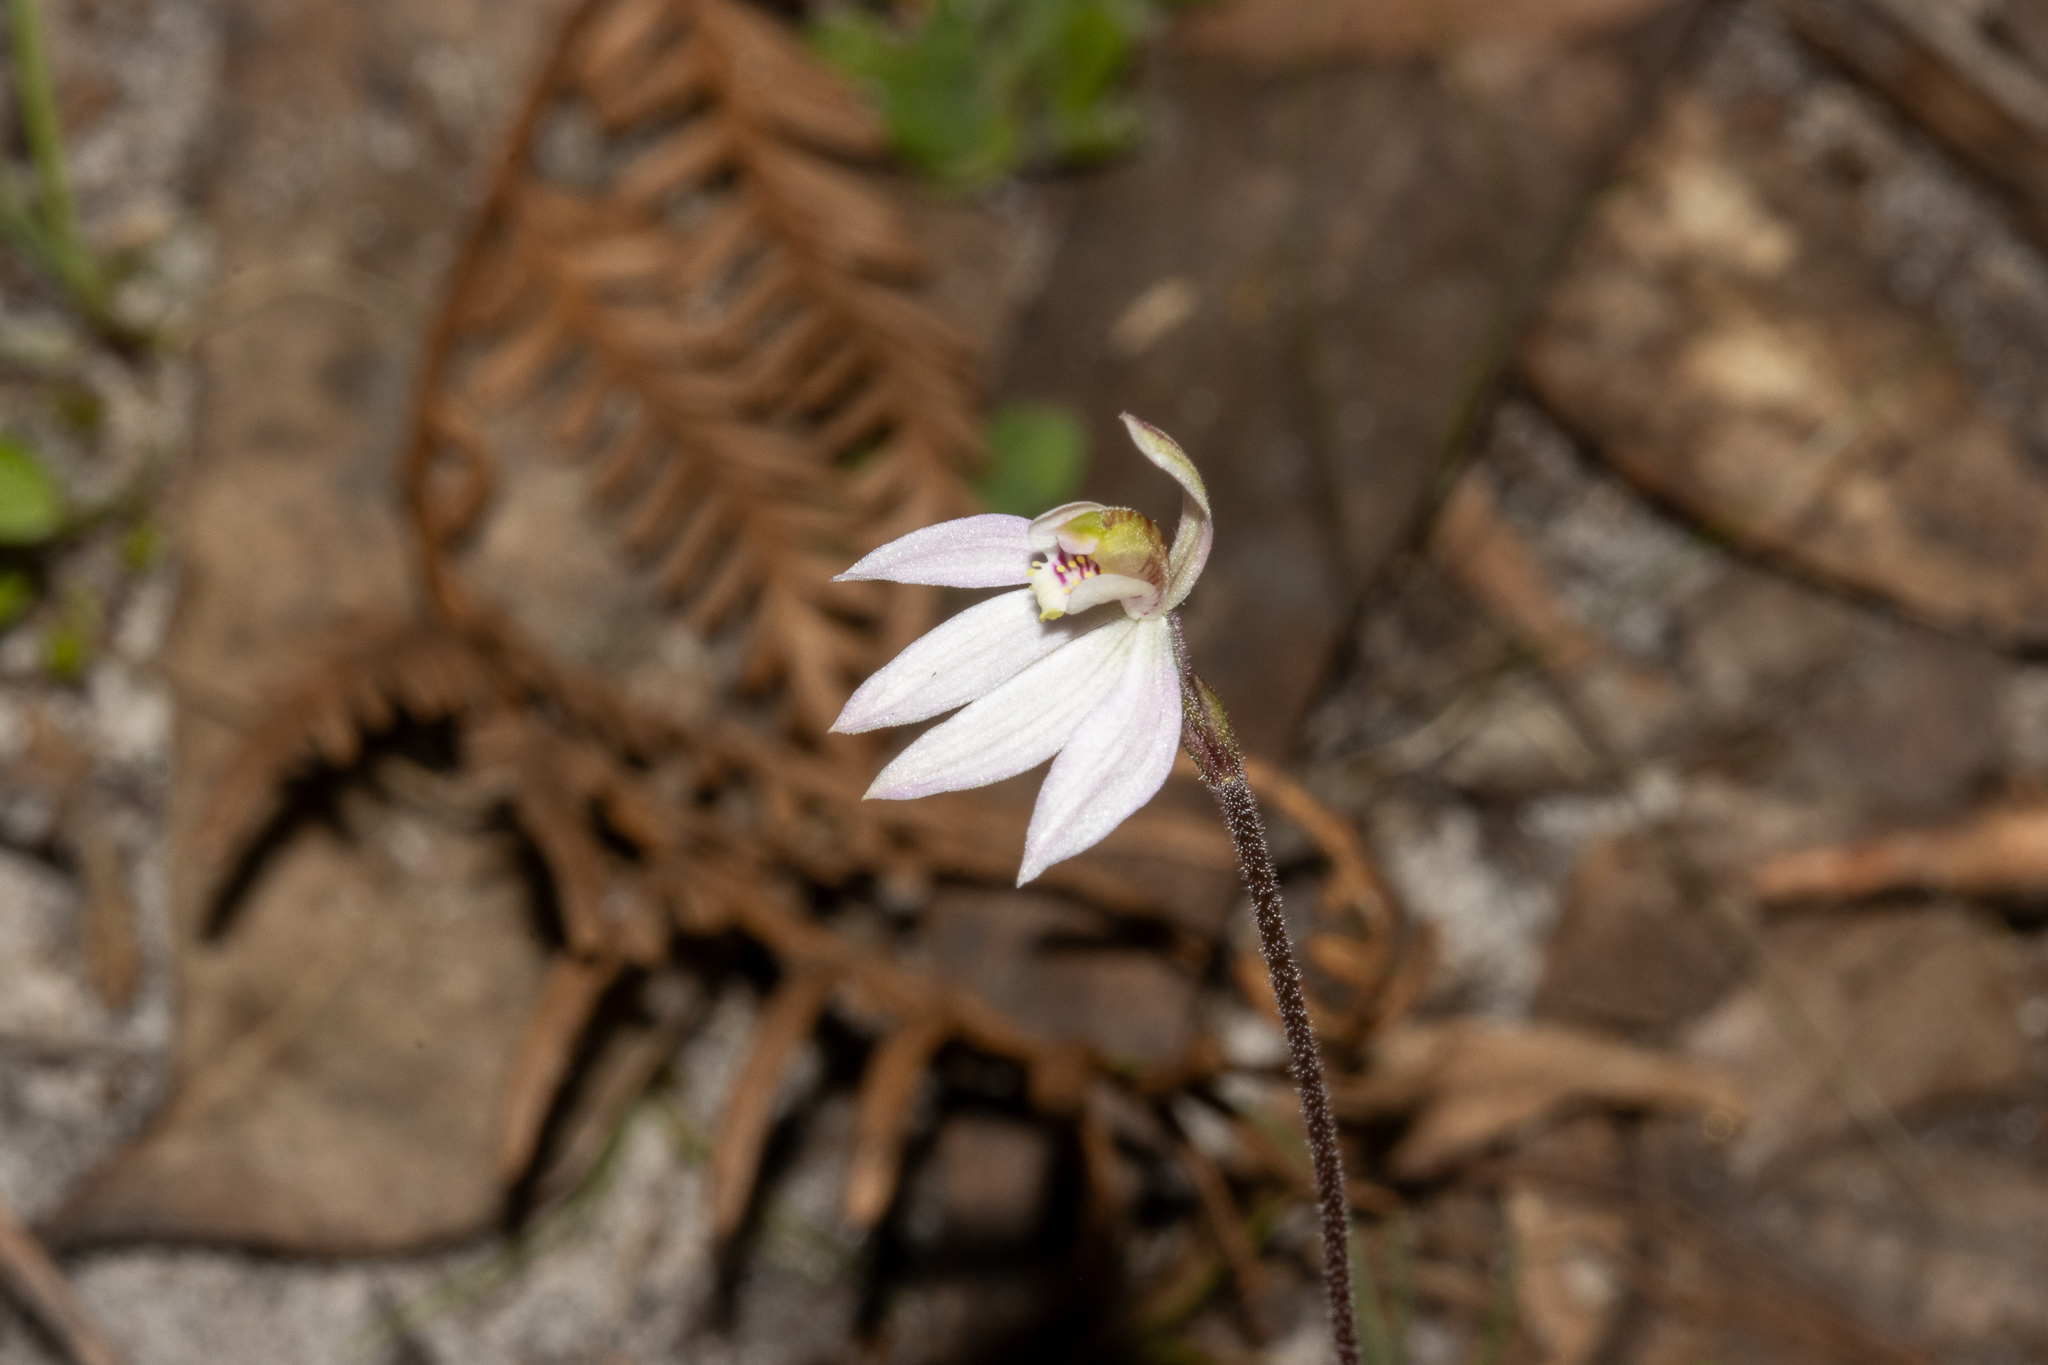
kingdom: Plantae
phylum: Tracheophyta
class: Liliopsida
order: Asparagales
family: Orchidaceae
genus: Caladenia
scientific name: Caladenia carnea
